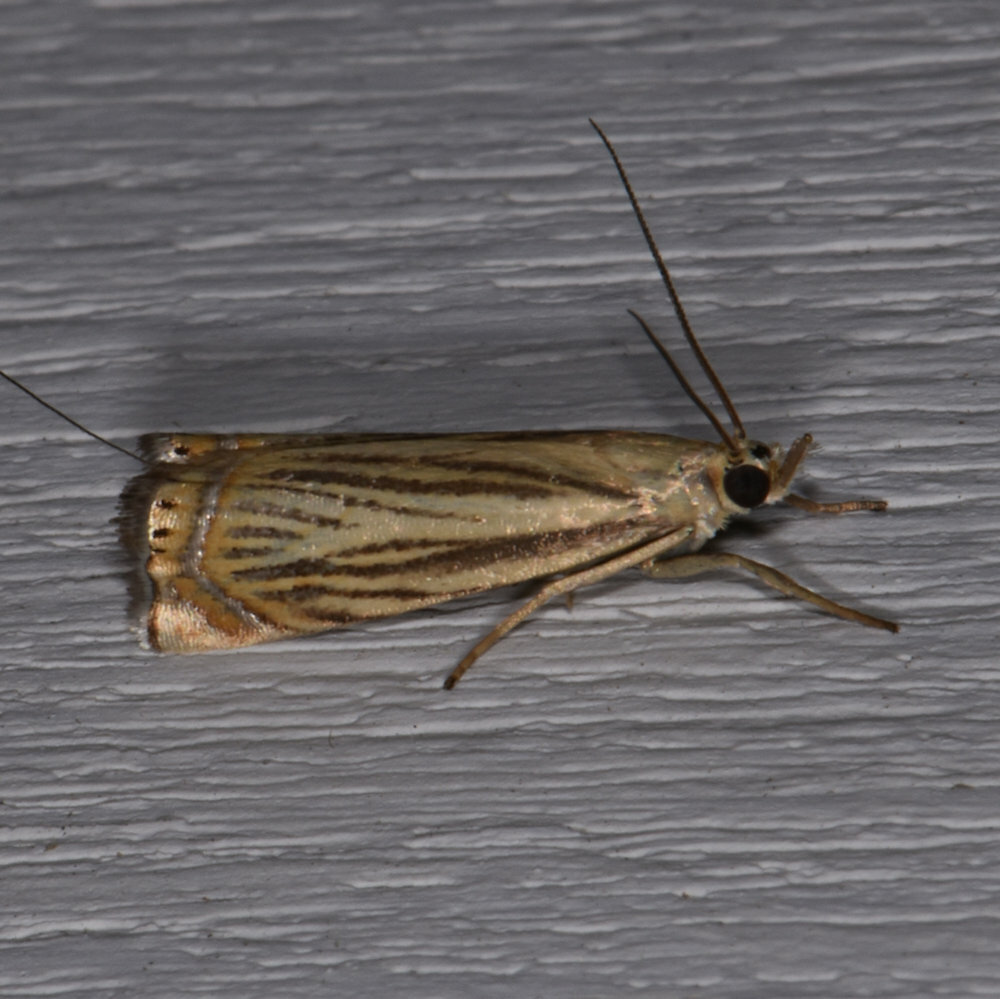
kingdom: Animalia
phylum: Arthropoda
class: Insecta
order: Lepidoptera
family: Crambidae
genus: Chrysoteuchia
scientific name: Chrysoteuchia topiarius
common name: Topiary grass-veneer
